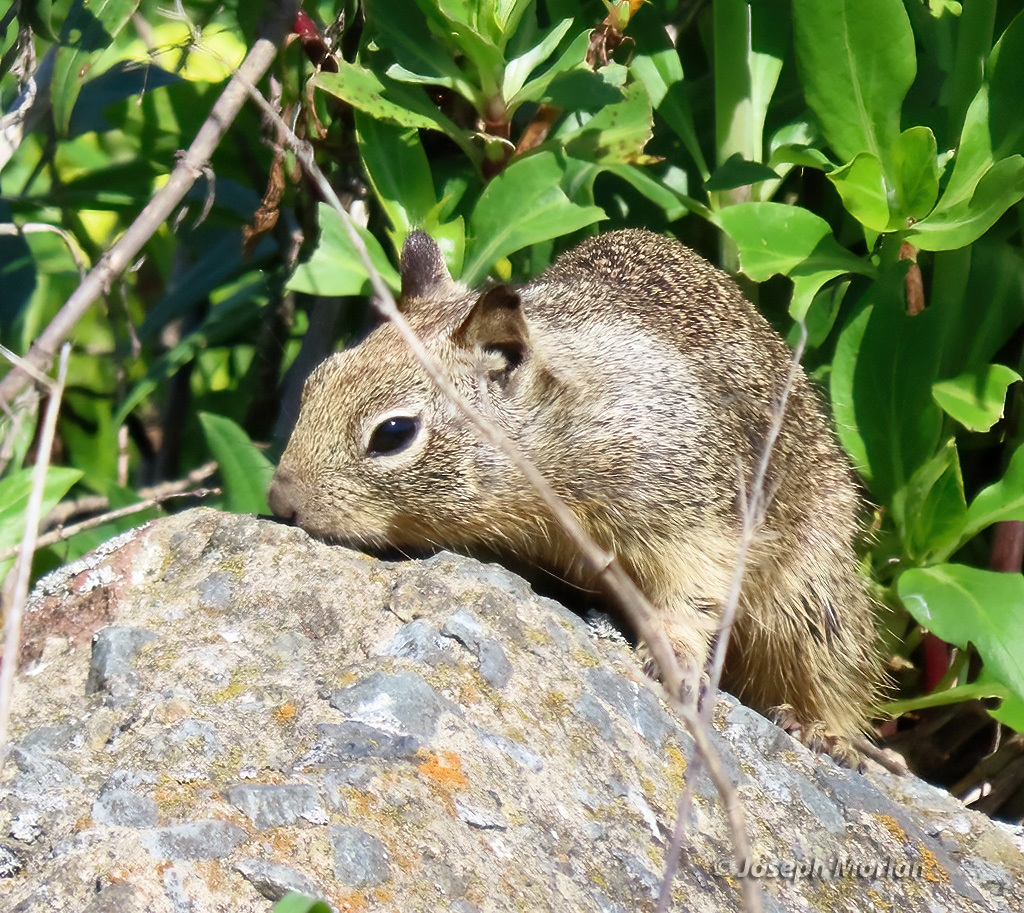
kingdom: Animalia
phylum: Chordata
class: Mammalia
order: Rodentia
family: Sciuridae
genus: Otospermophilus
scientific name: Otospermophilus beecheyi
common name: California ground squirrel
